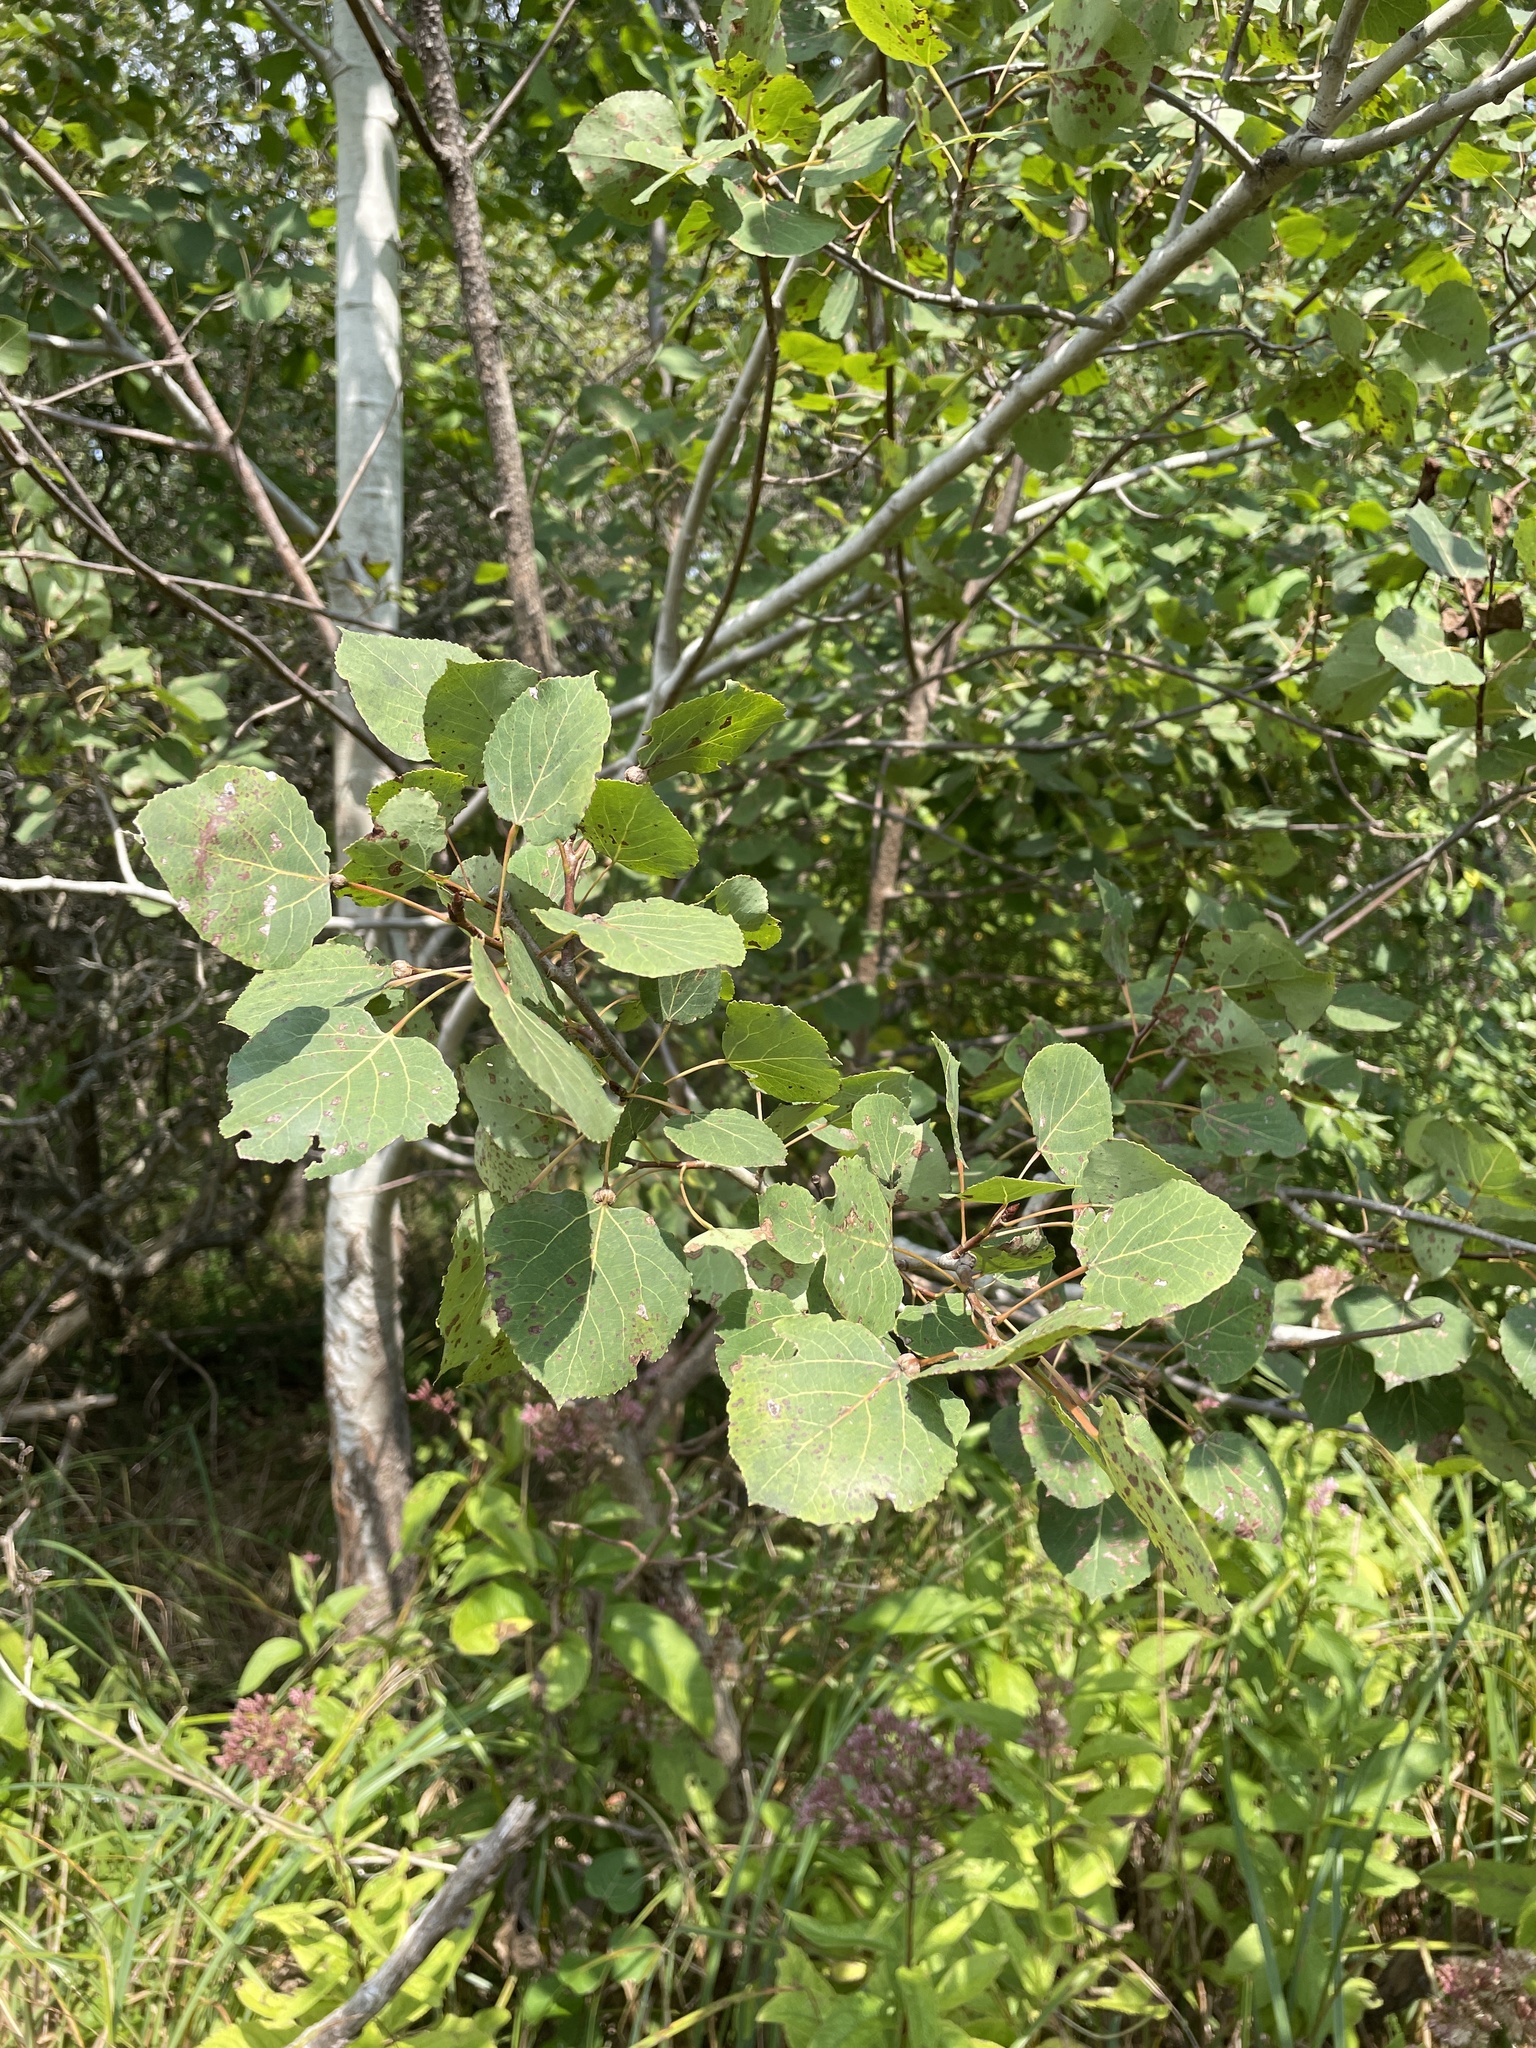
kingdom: Plantae
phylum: Tracheophyta
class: Magnoliopsida
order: Malpighiales
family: Salicaceae
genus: Populus
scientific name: Populus tremuloides
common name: Quaking aspen
